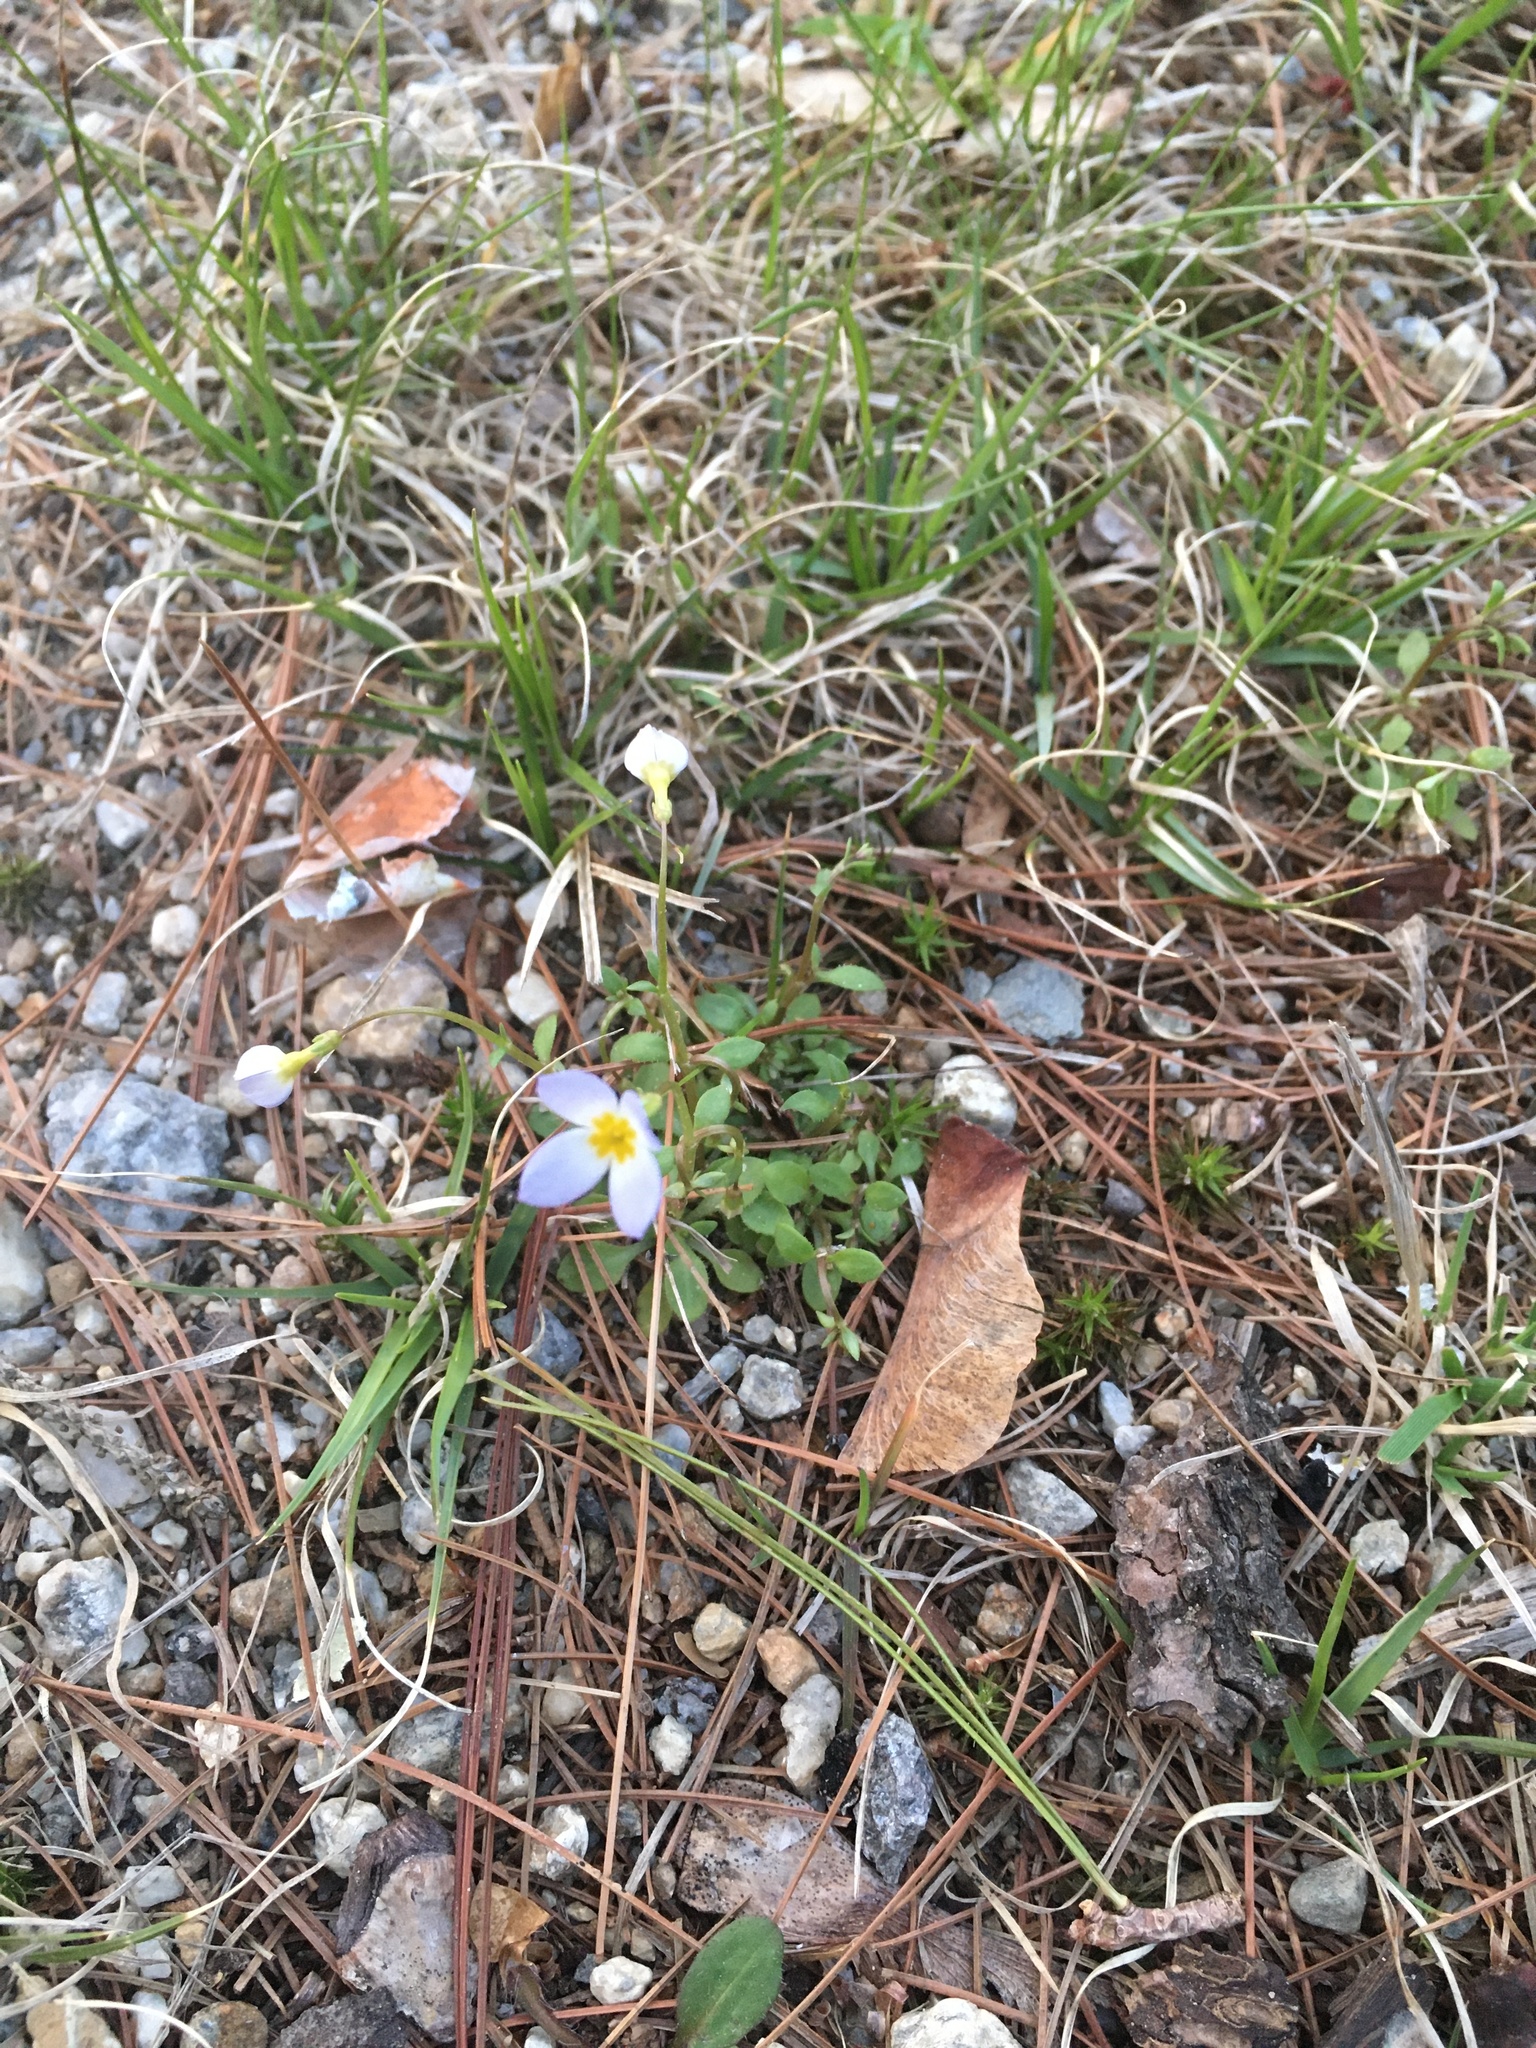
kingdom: Plantae
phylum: Tracheophyta
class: Magnoliopsida
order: Gentianales
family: Rubiaceae
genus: Houstonia
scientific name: Houstonia caerulea
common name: Bluets
